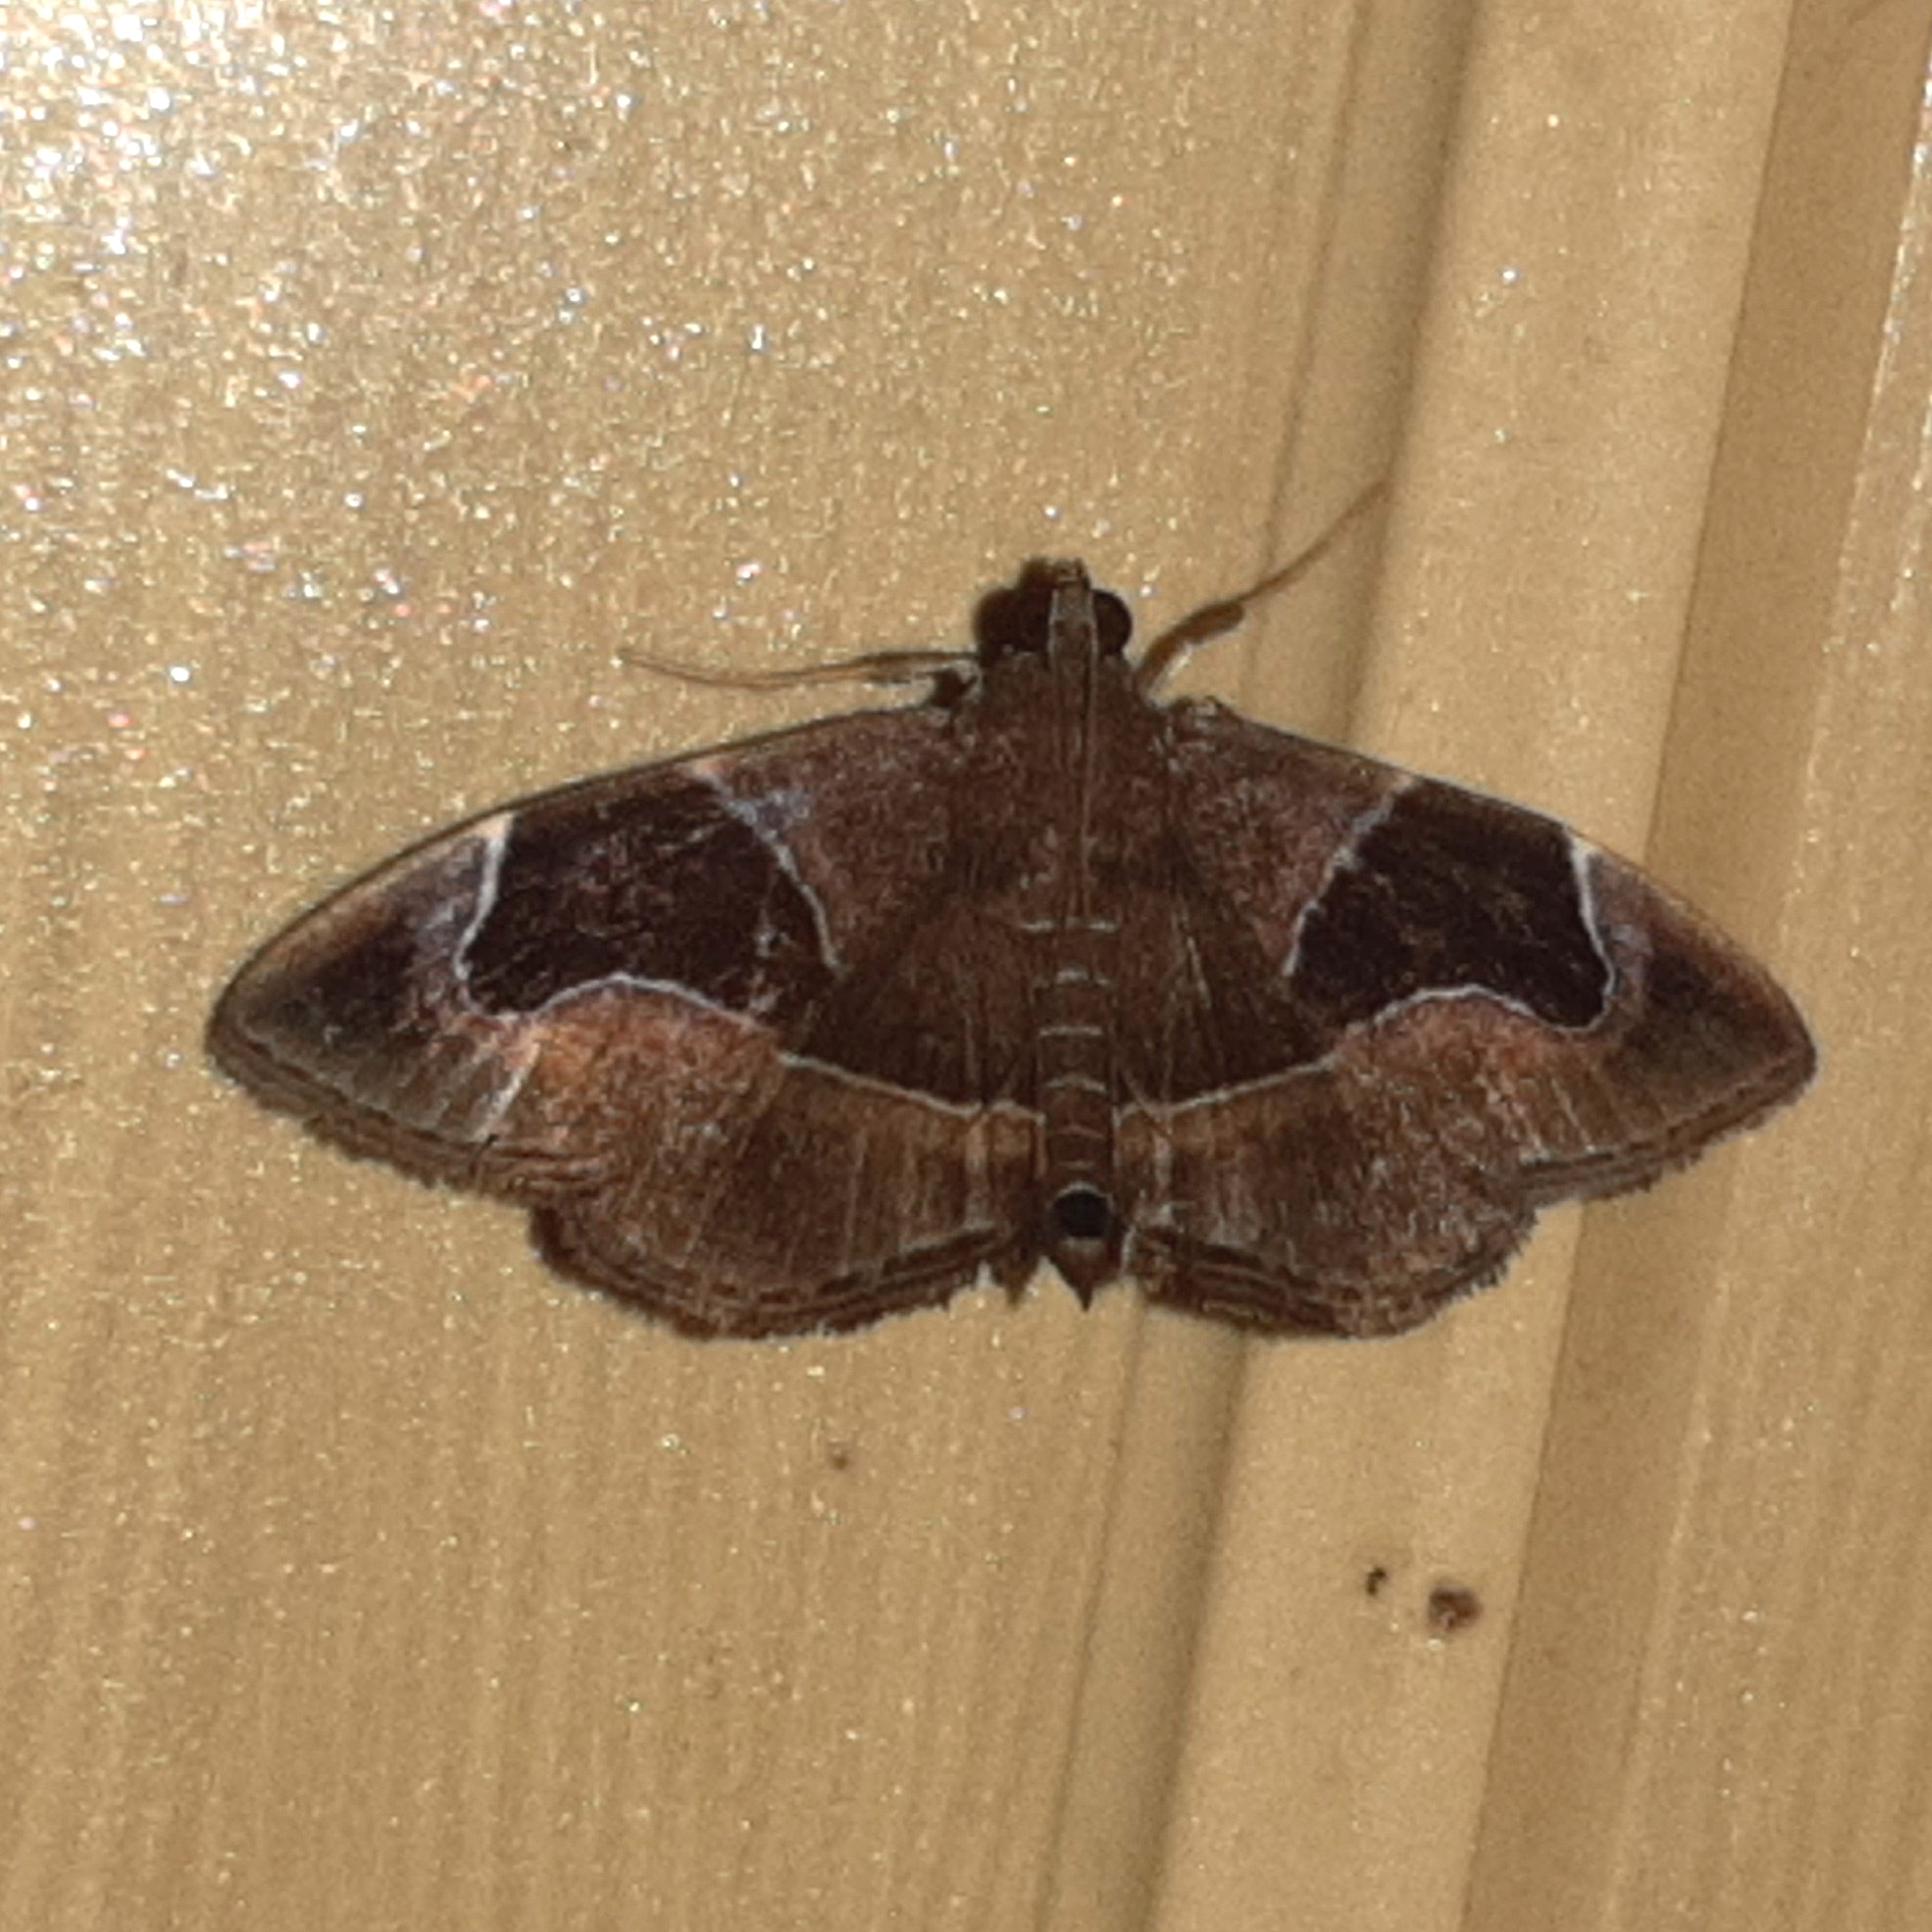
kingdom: Animalia
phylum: Arthropoda
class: Insecta
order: Lepidoptera
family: Crambidae
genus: Lamprosema
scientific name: Lamprosema
